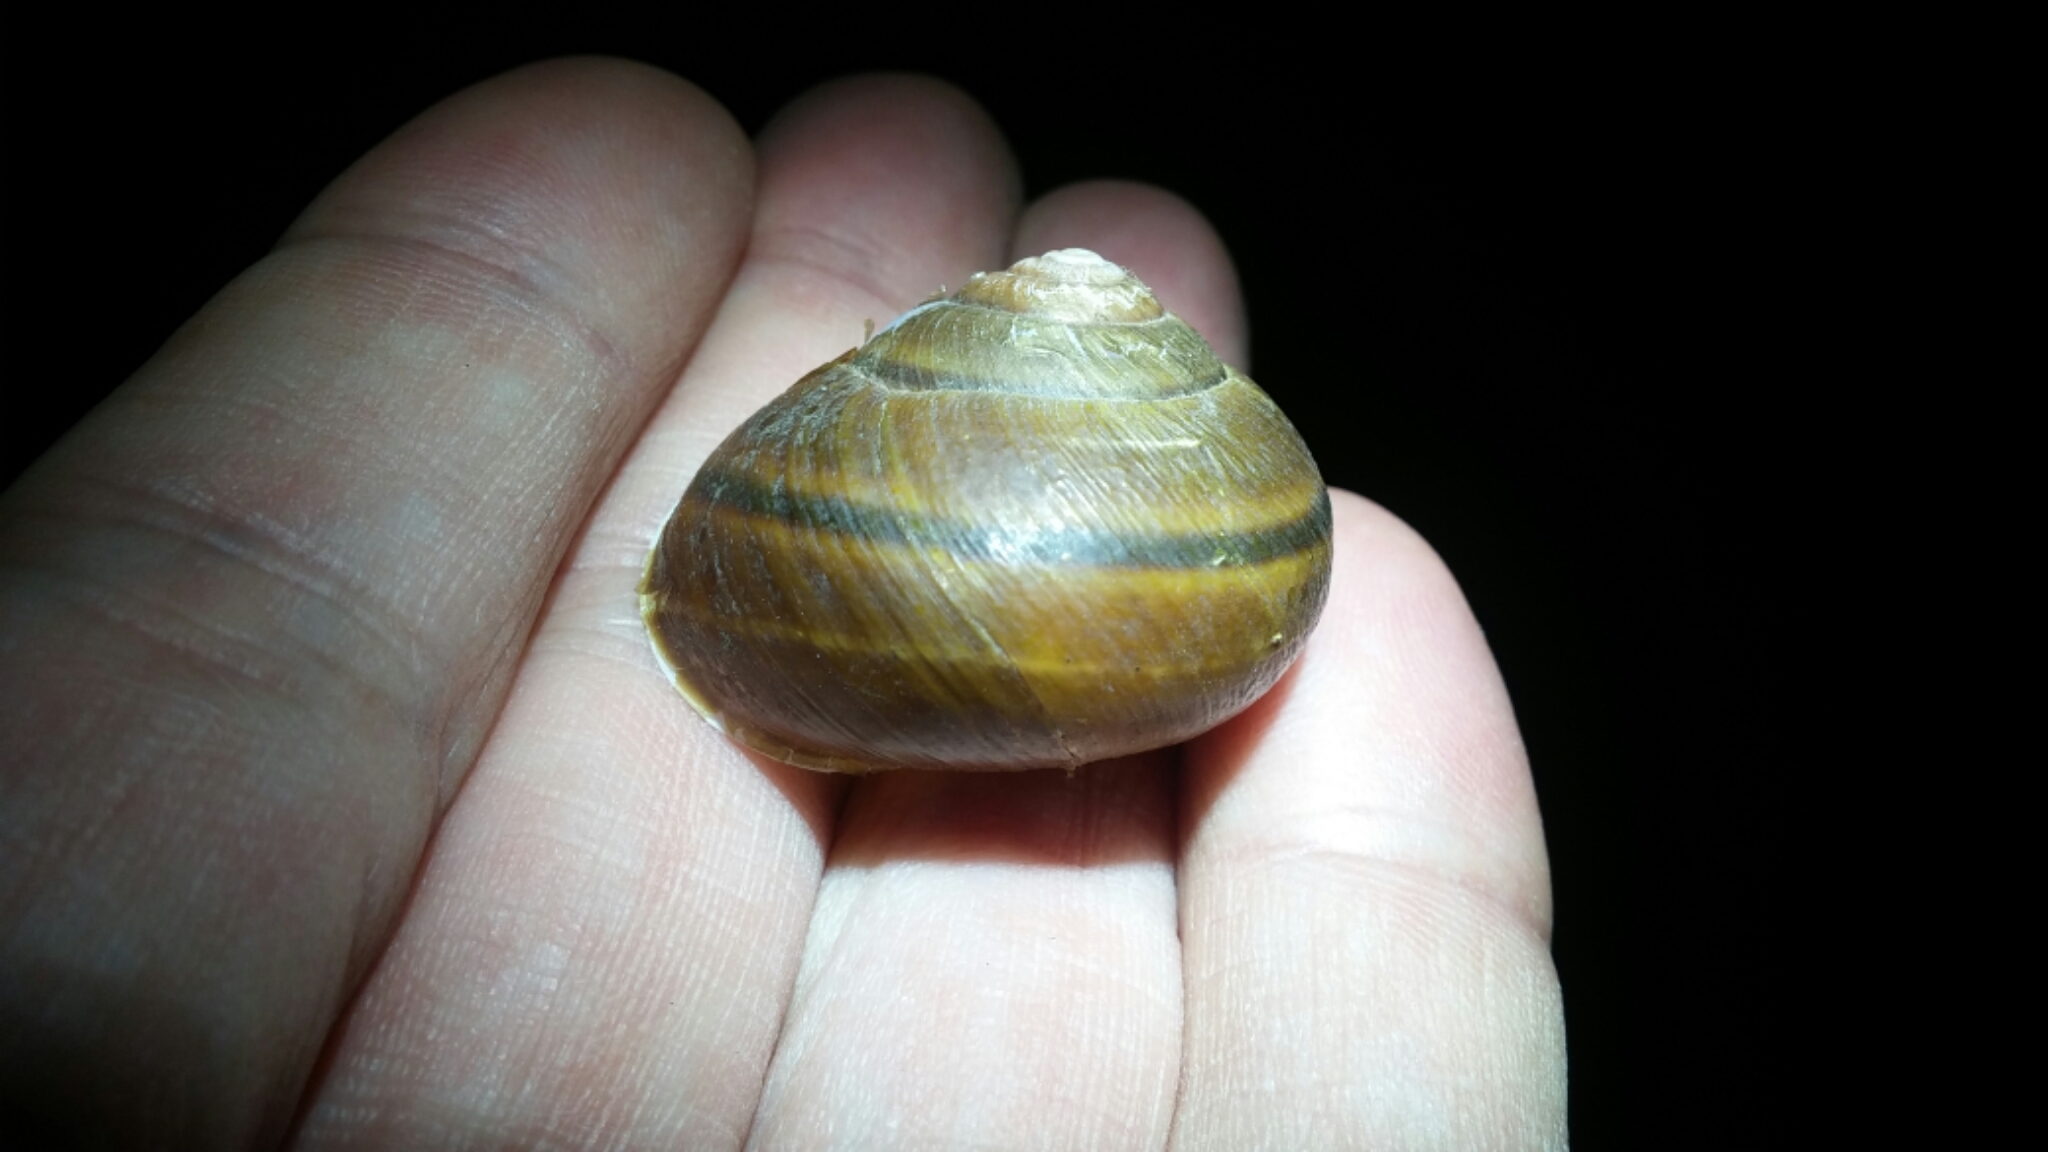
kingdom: Animalia
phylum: Mollusca
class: Gastropoda
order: Stylommatophora
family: Xanthonychidae
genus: Helminthoglypta
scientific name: Helminthoglypta tudiculata
